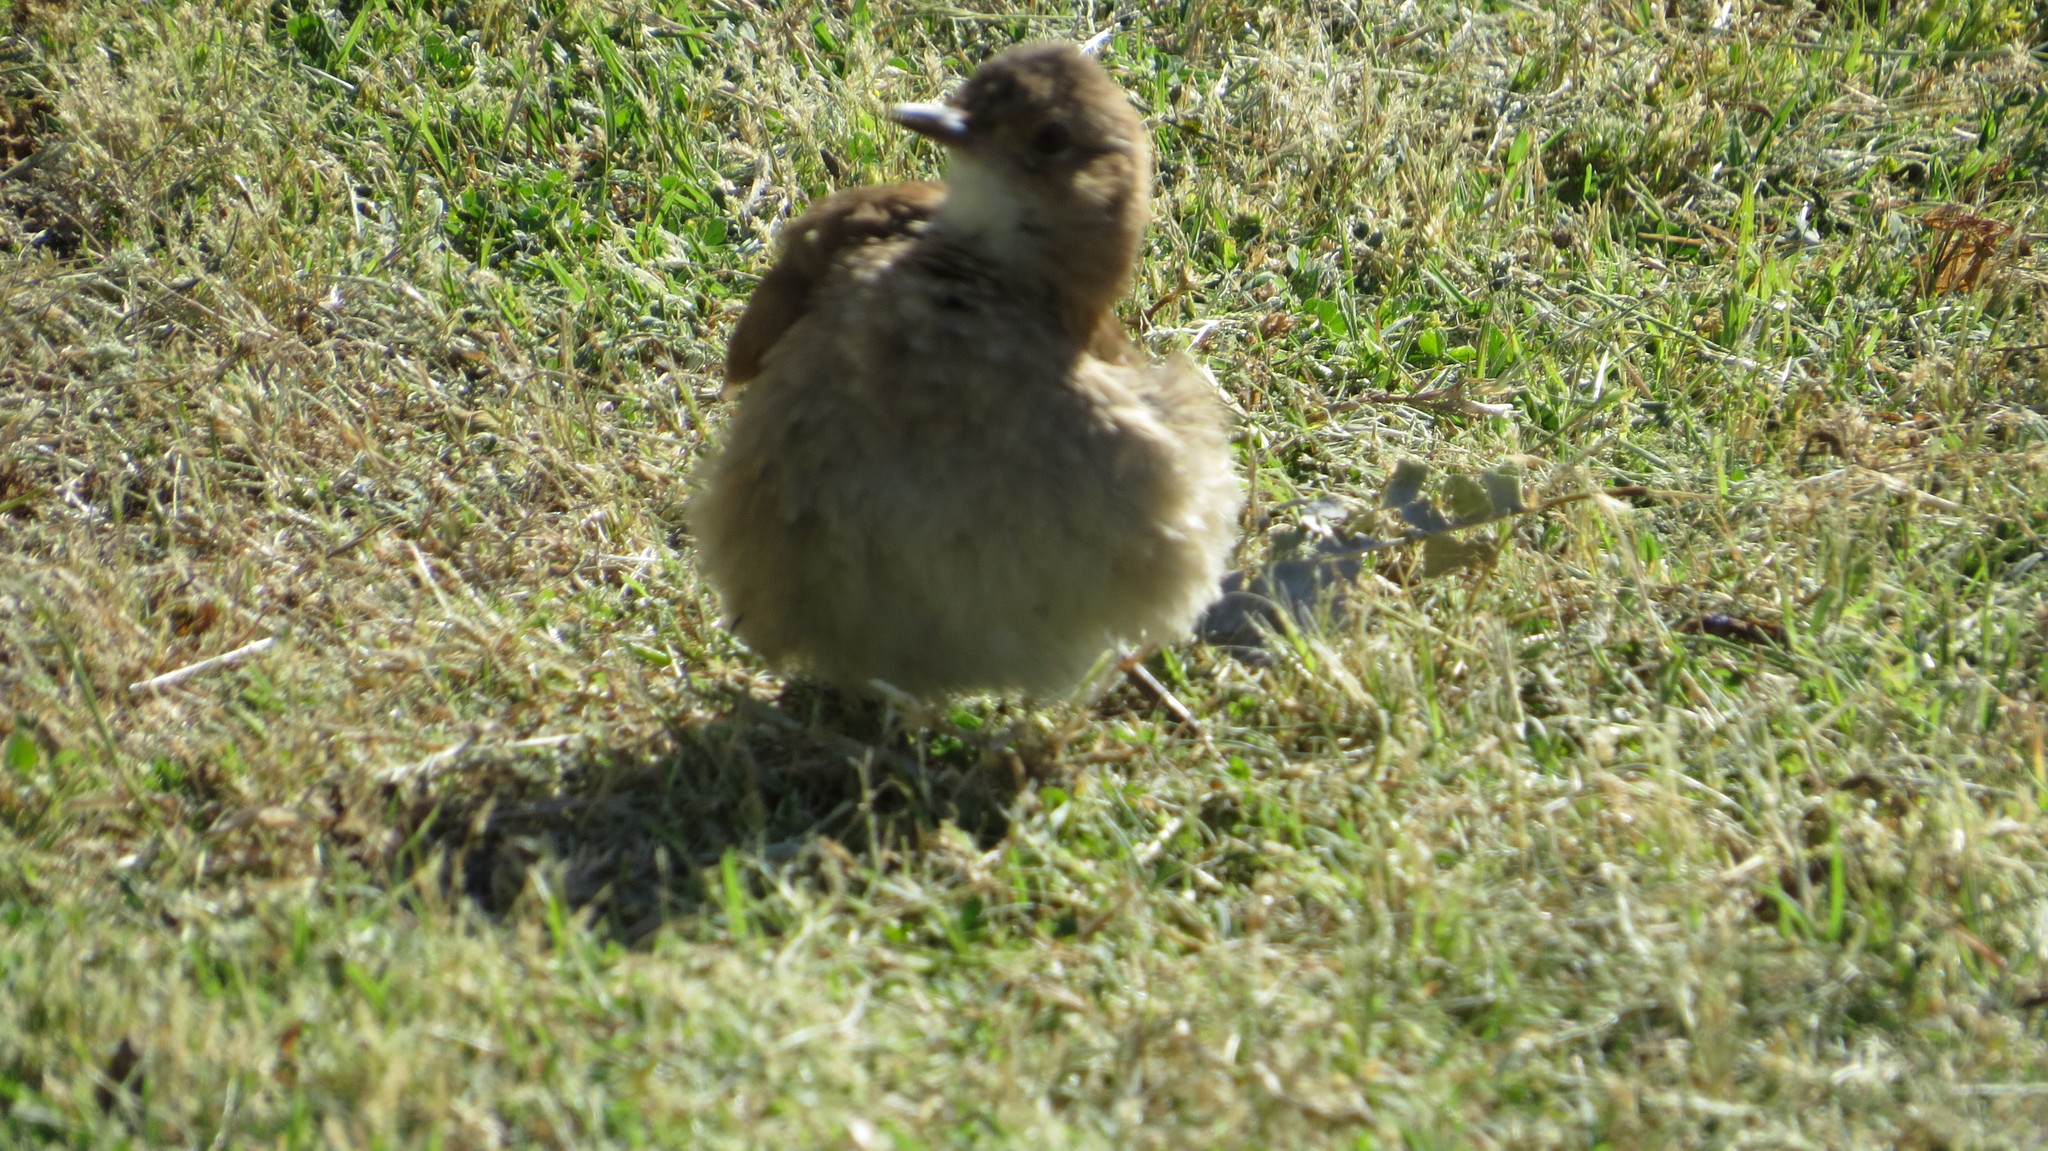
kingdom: Animalia
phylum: Chordata
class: Aves
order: Passeriformes
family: Furnariidae
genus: Furnarius
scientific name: Furnarius rufus
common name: Rufous hornero
